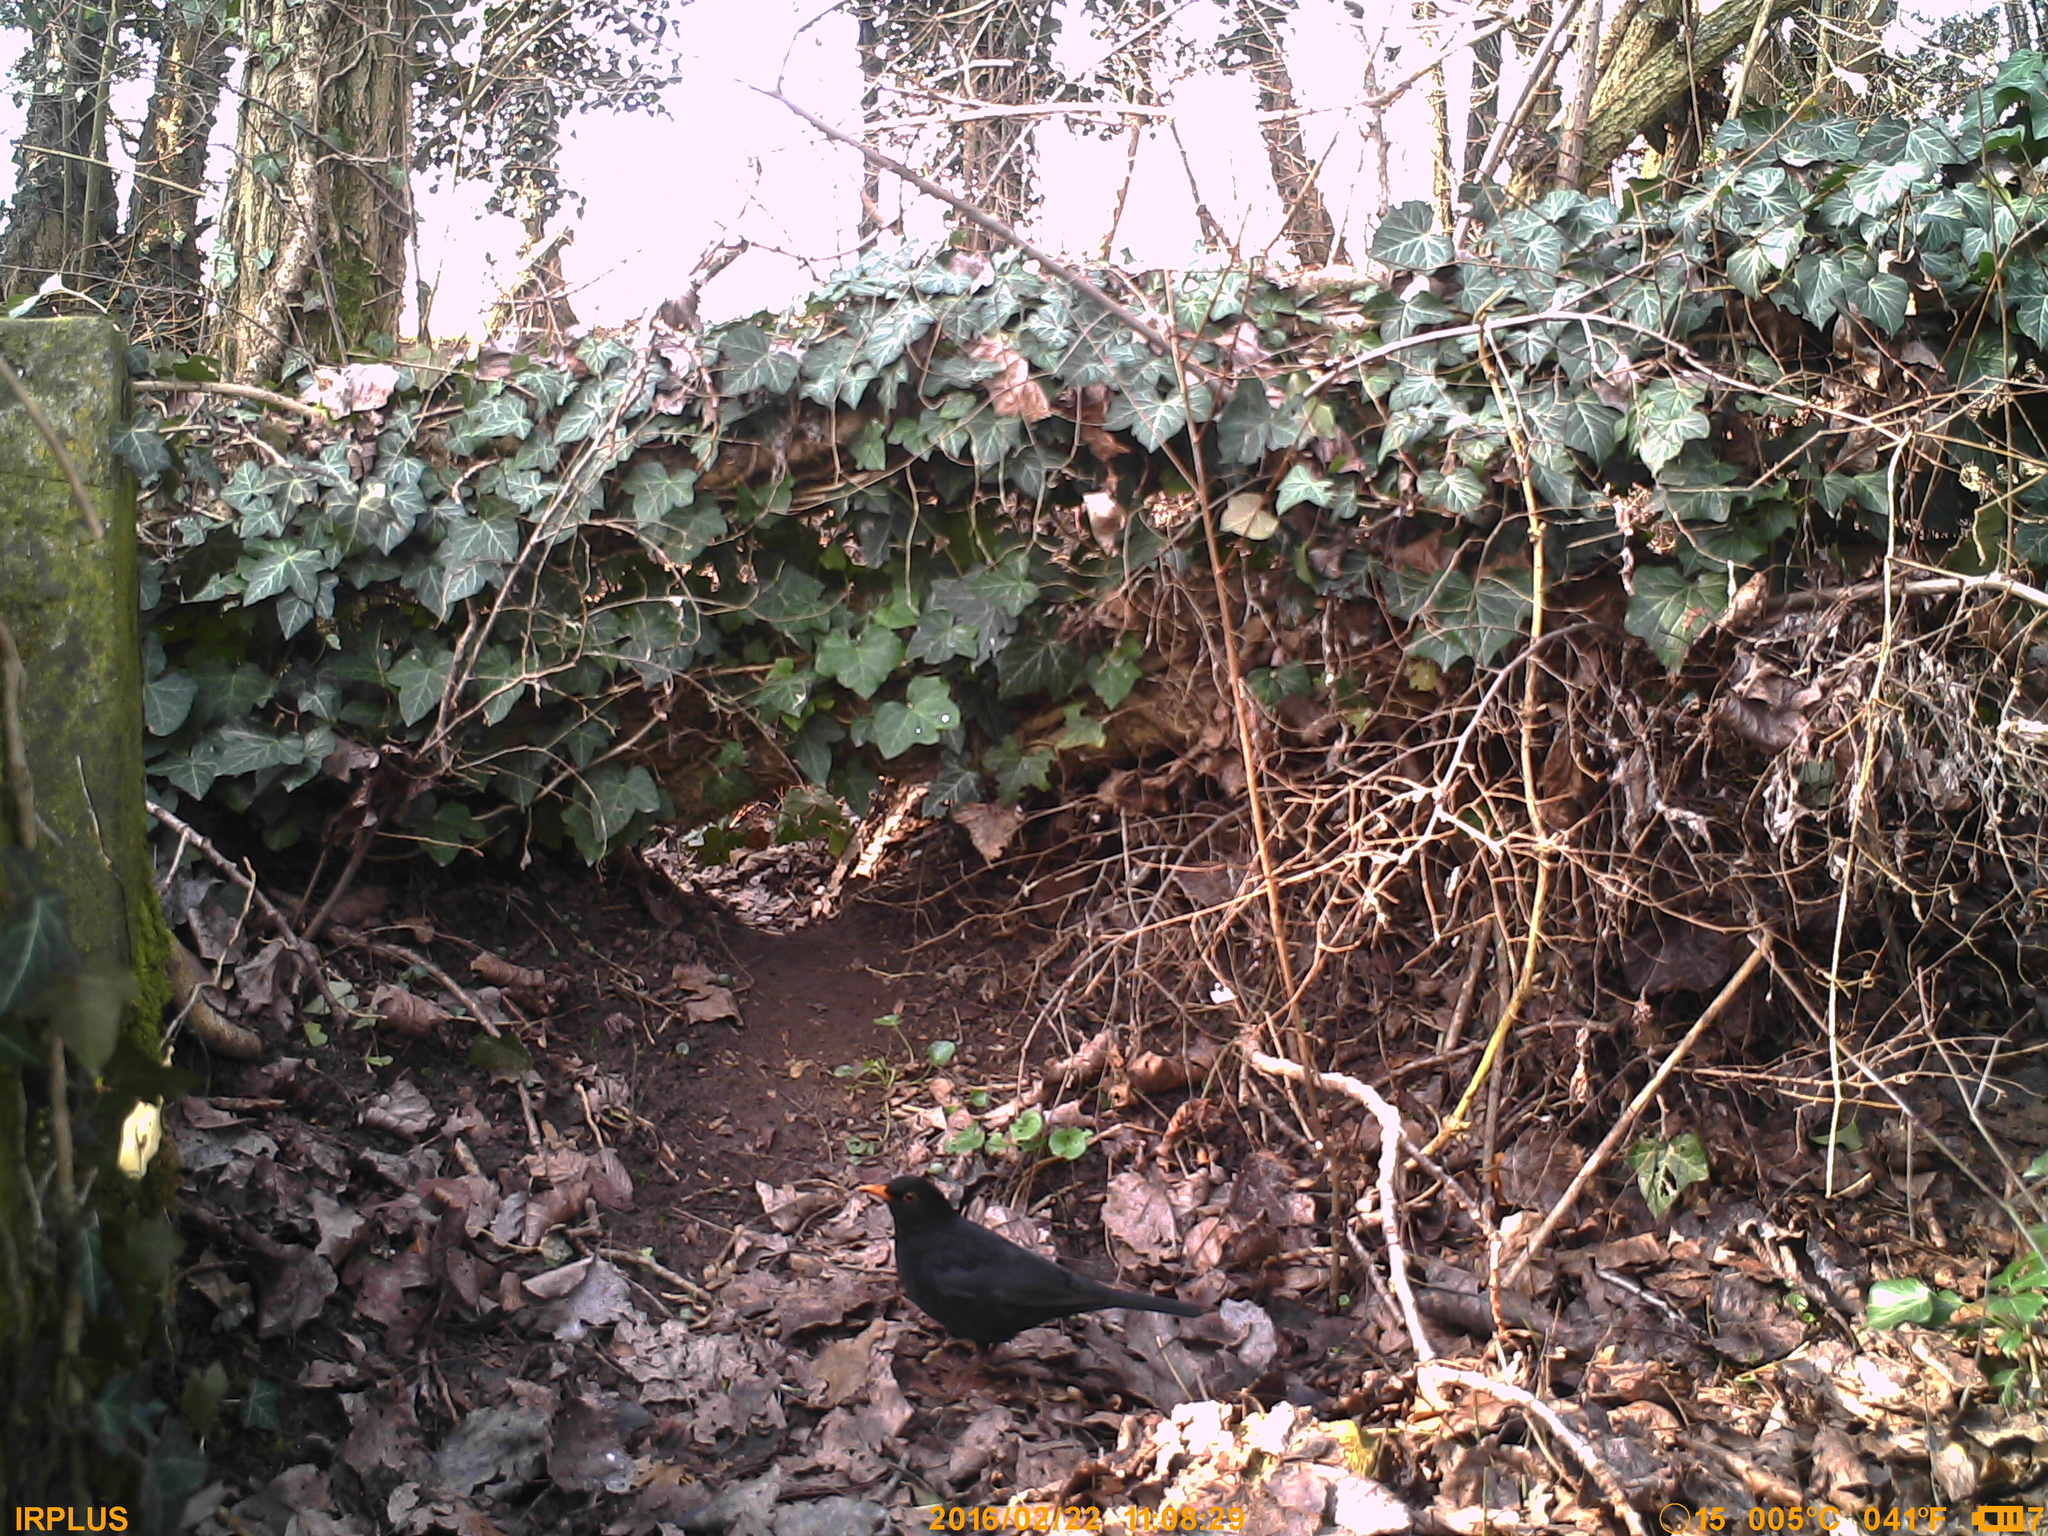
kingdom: Animalia
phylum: Chordata
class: Aves
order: Passeriformes
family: Turdidae
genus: Turdus
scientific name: Turdus merula
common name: Common blackbird
